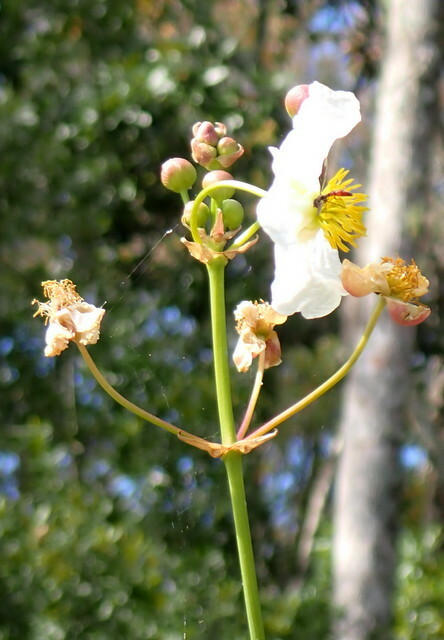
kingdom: Plantae
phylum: Tracheophyta
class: Liliopsida
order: Alismatales
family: Alismataceae
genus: Sagittaria
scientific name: Sagittaria lancifolia
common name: Lance-leaf arrowhead
